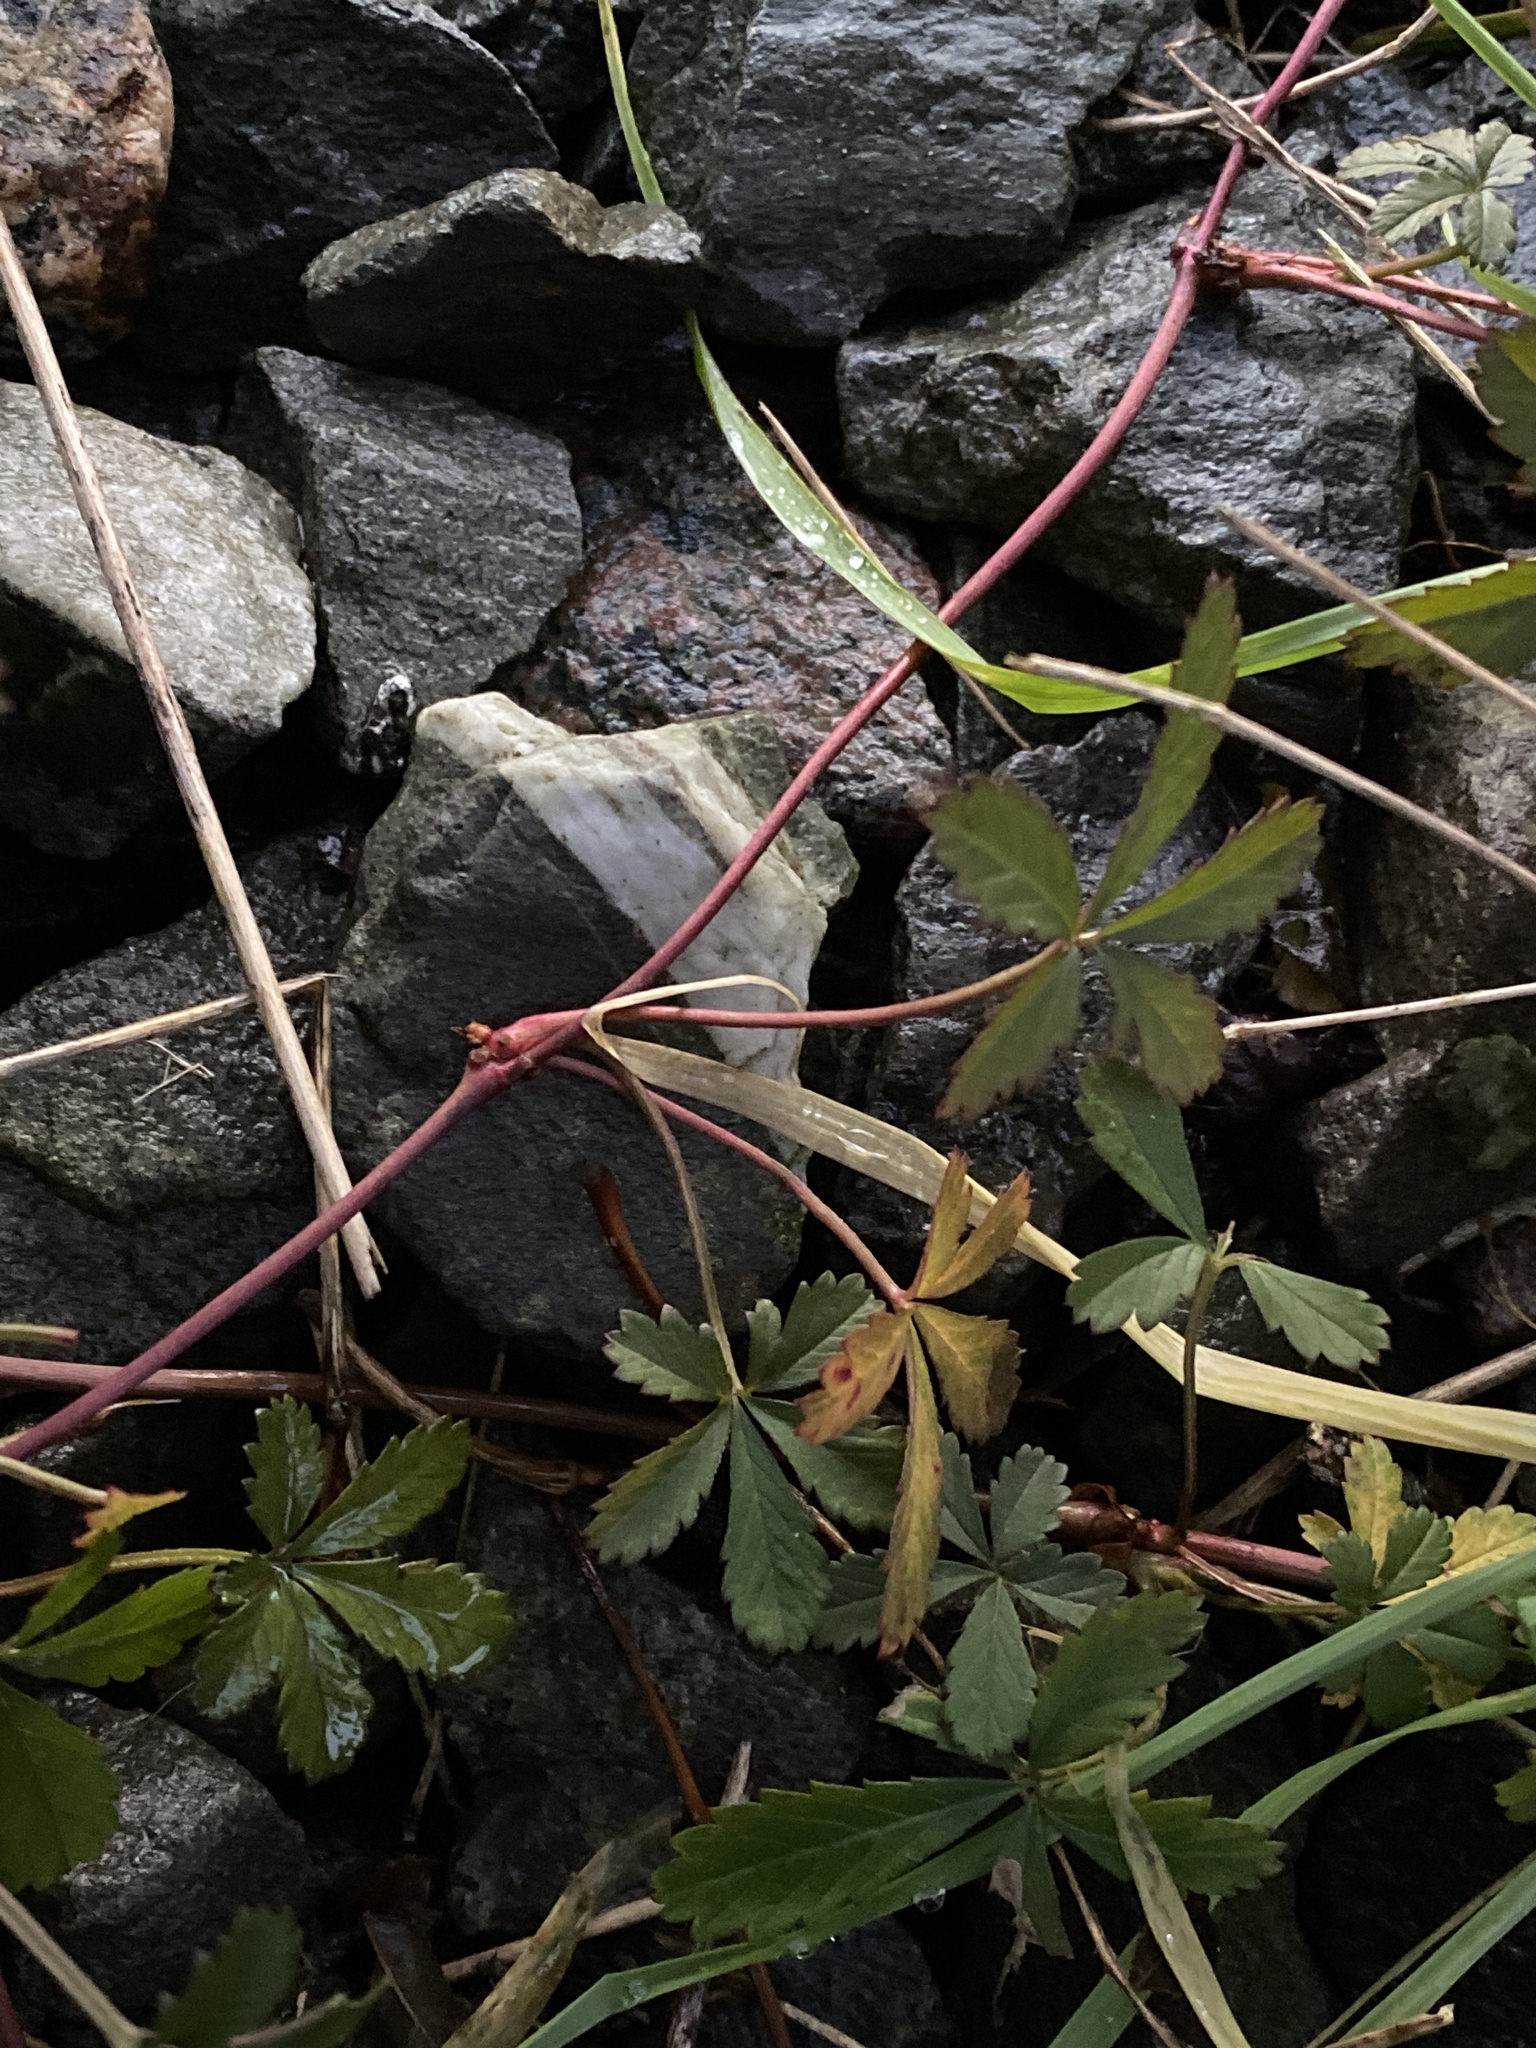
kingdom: Plantae
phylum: Tracheophyta
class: Magnoliopsida
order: Rosales
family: Rosaceae
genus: Potentilla
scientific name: Potentilla reptans
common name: Creeping cinquefoil
